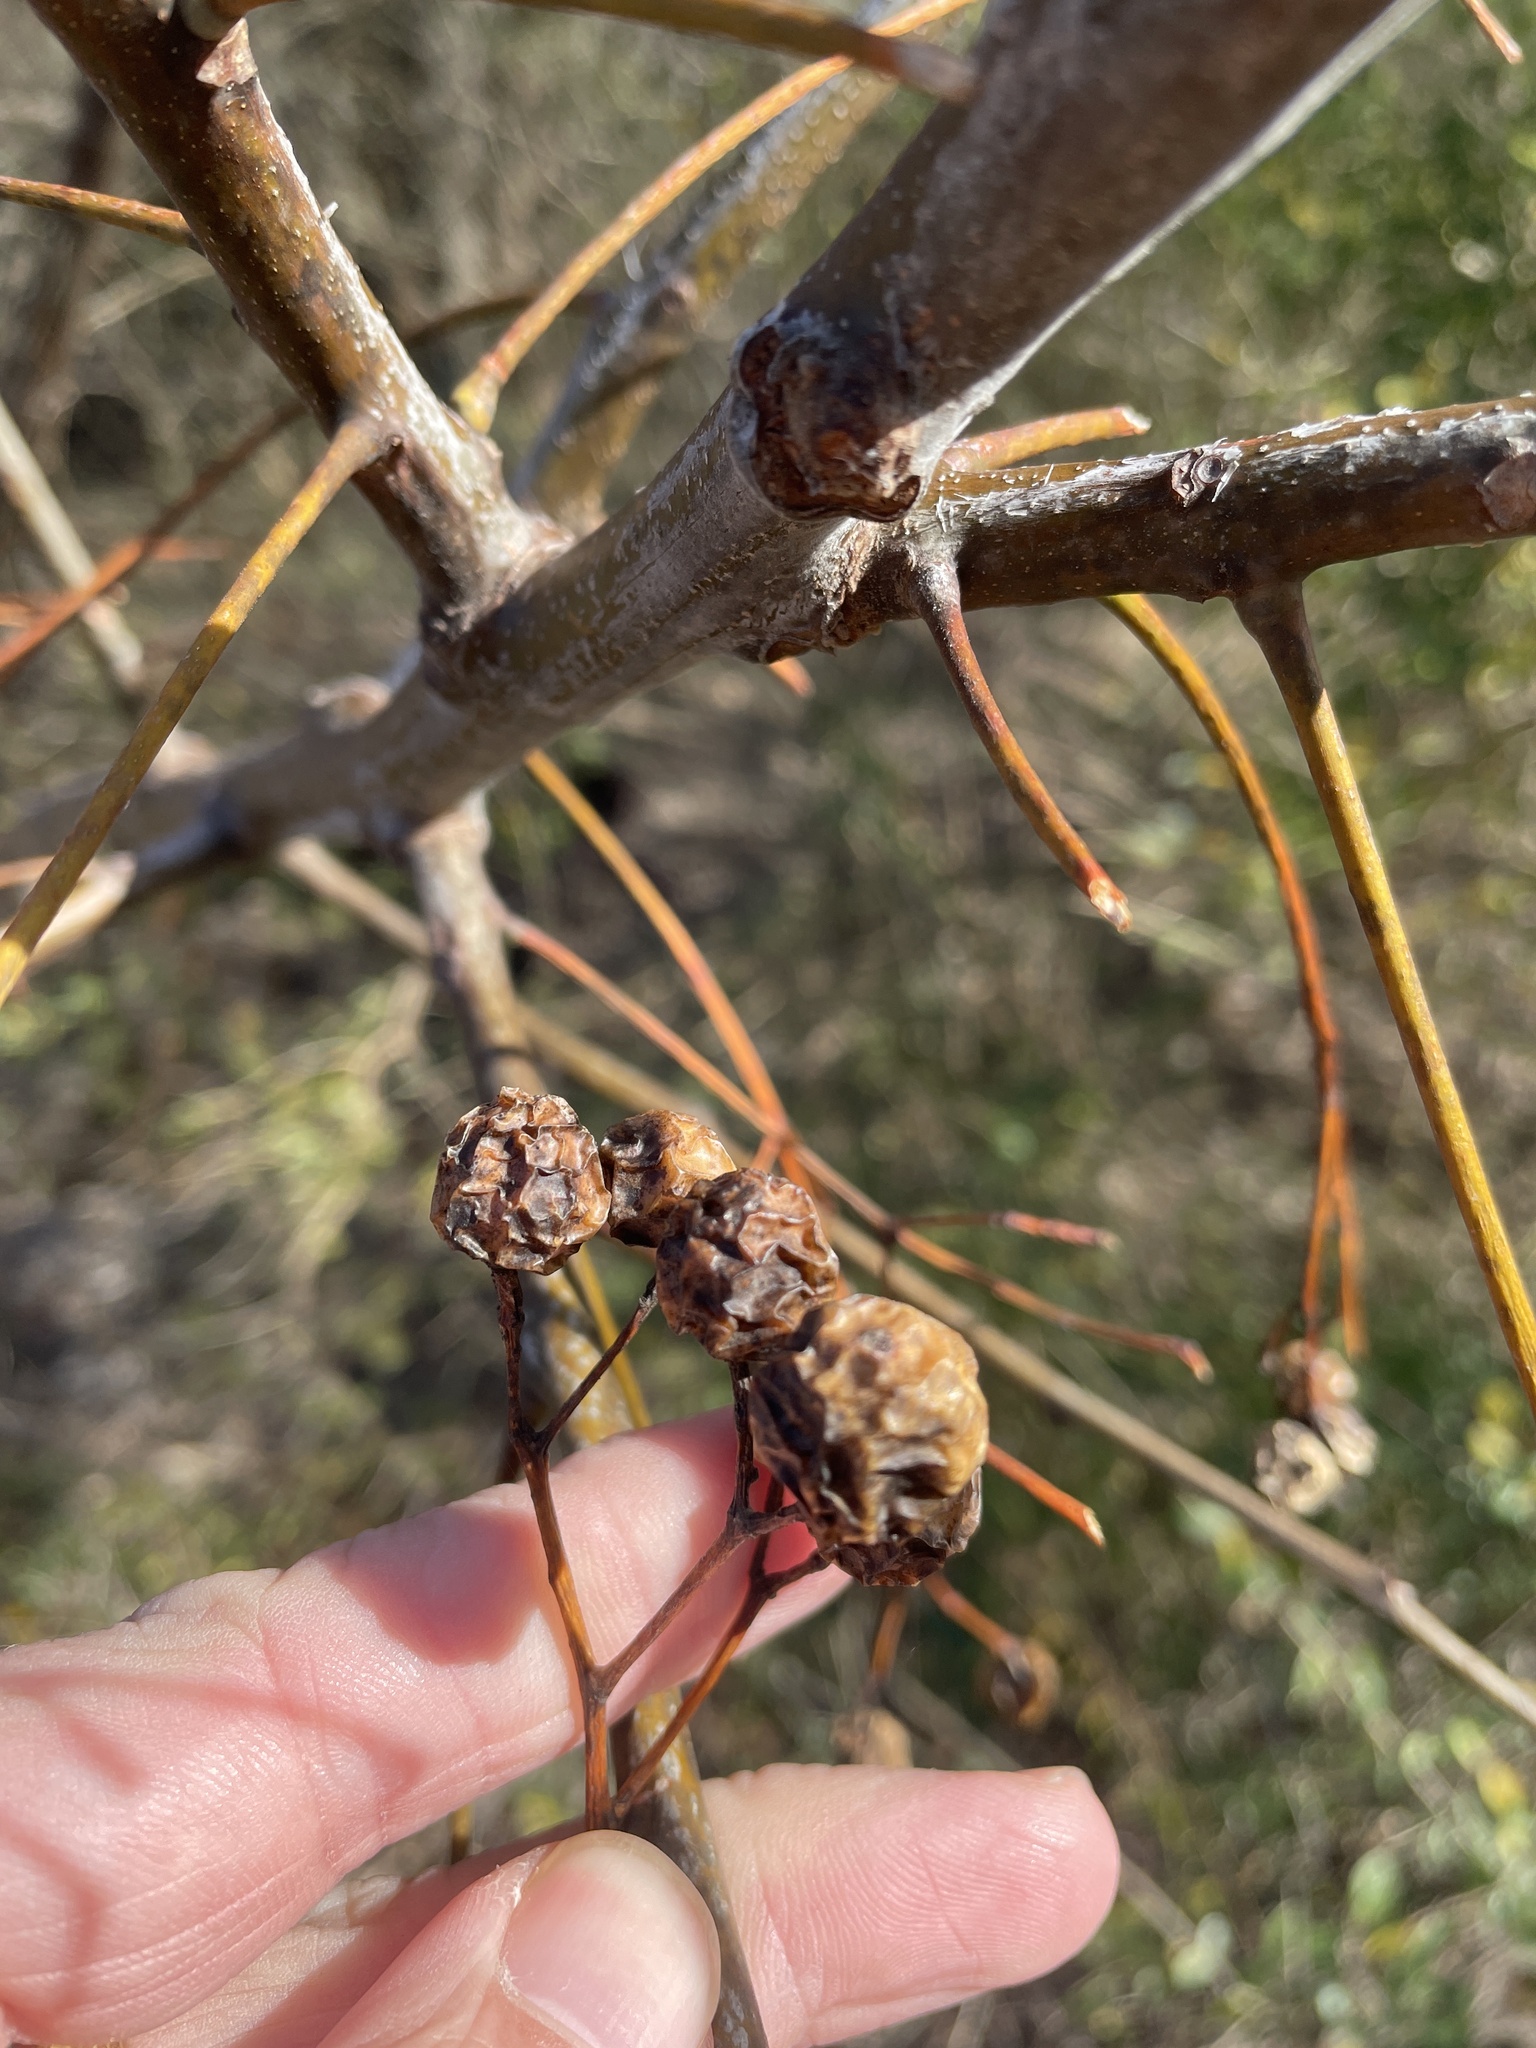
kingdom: Plantae
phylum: Tracheophyta
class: Magnoliopsida
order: Sapindales
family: Meliaceae
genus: Melia
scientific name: Melia azedarach
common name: Chinaberrytree
